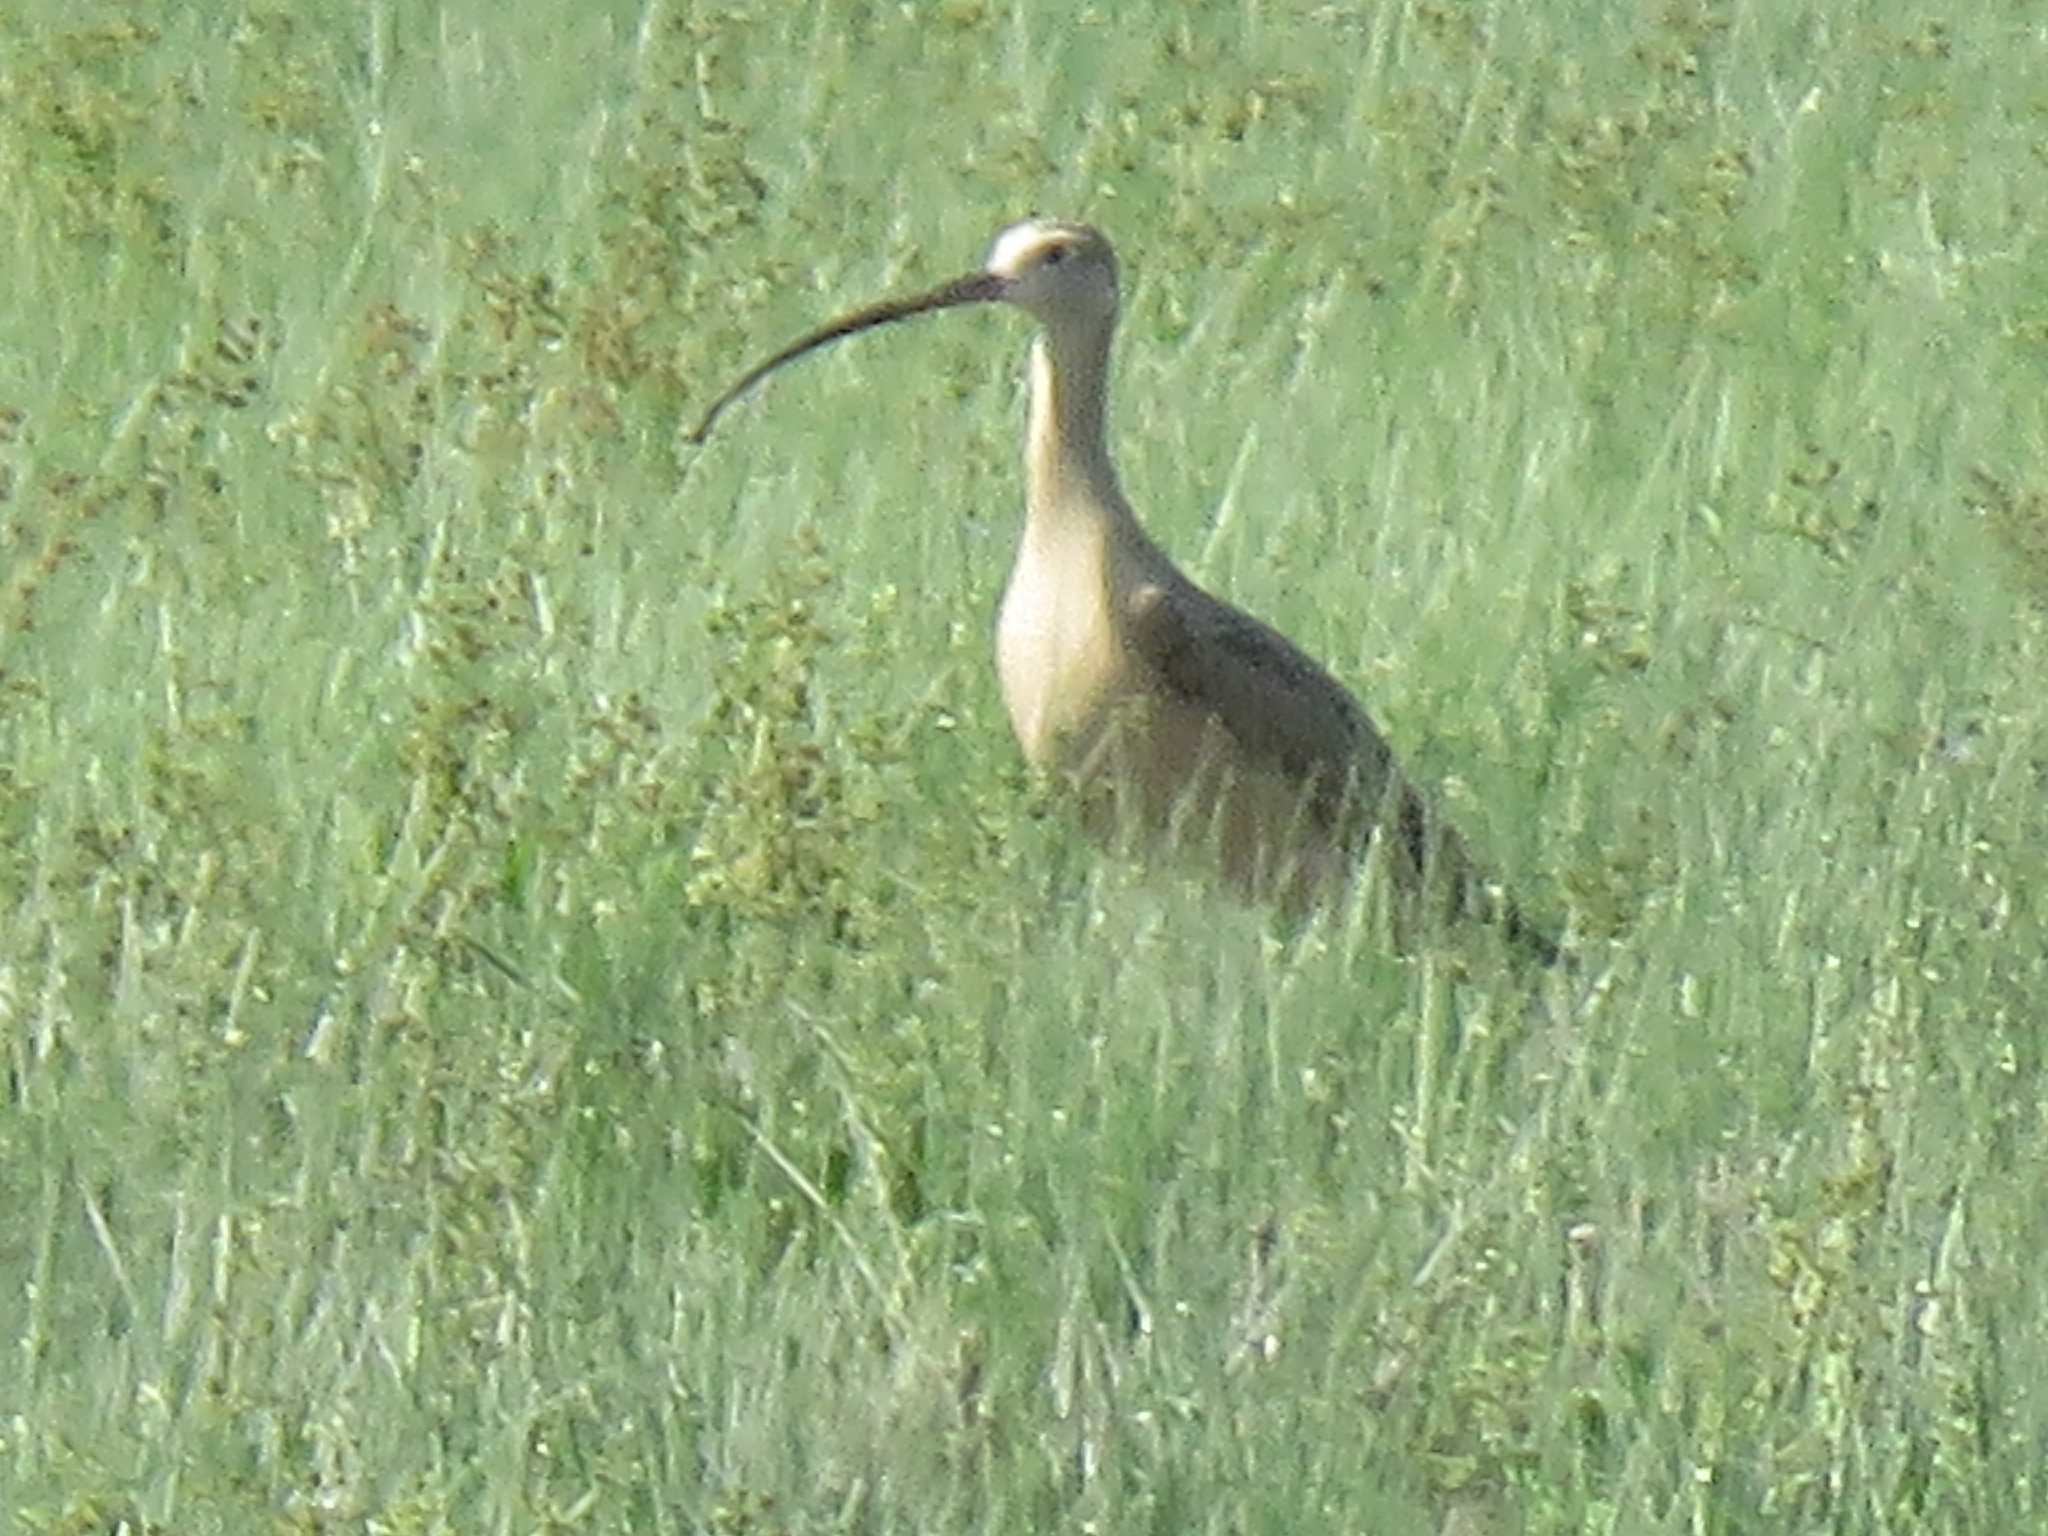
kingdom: Animalia
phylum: Chordata
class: Aves
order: Charadriiformes
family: Scolopacidae
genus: Numenius
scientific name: Numenius americanus
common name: Long-billed curlew
